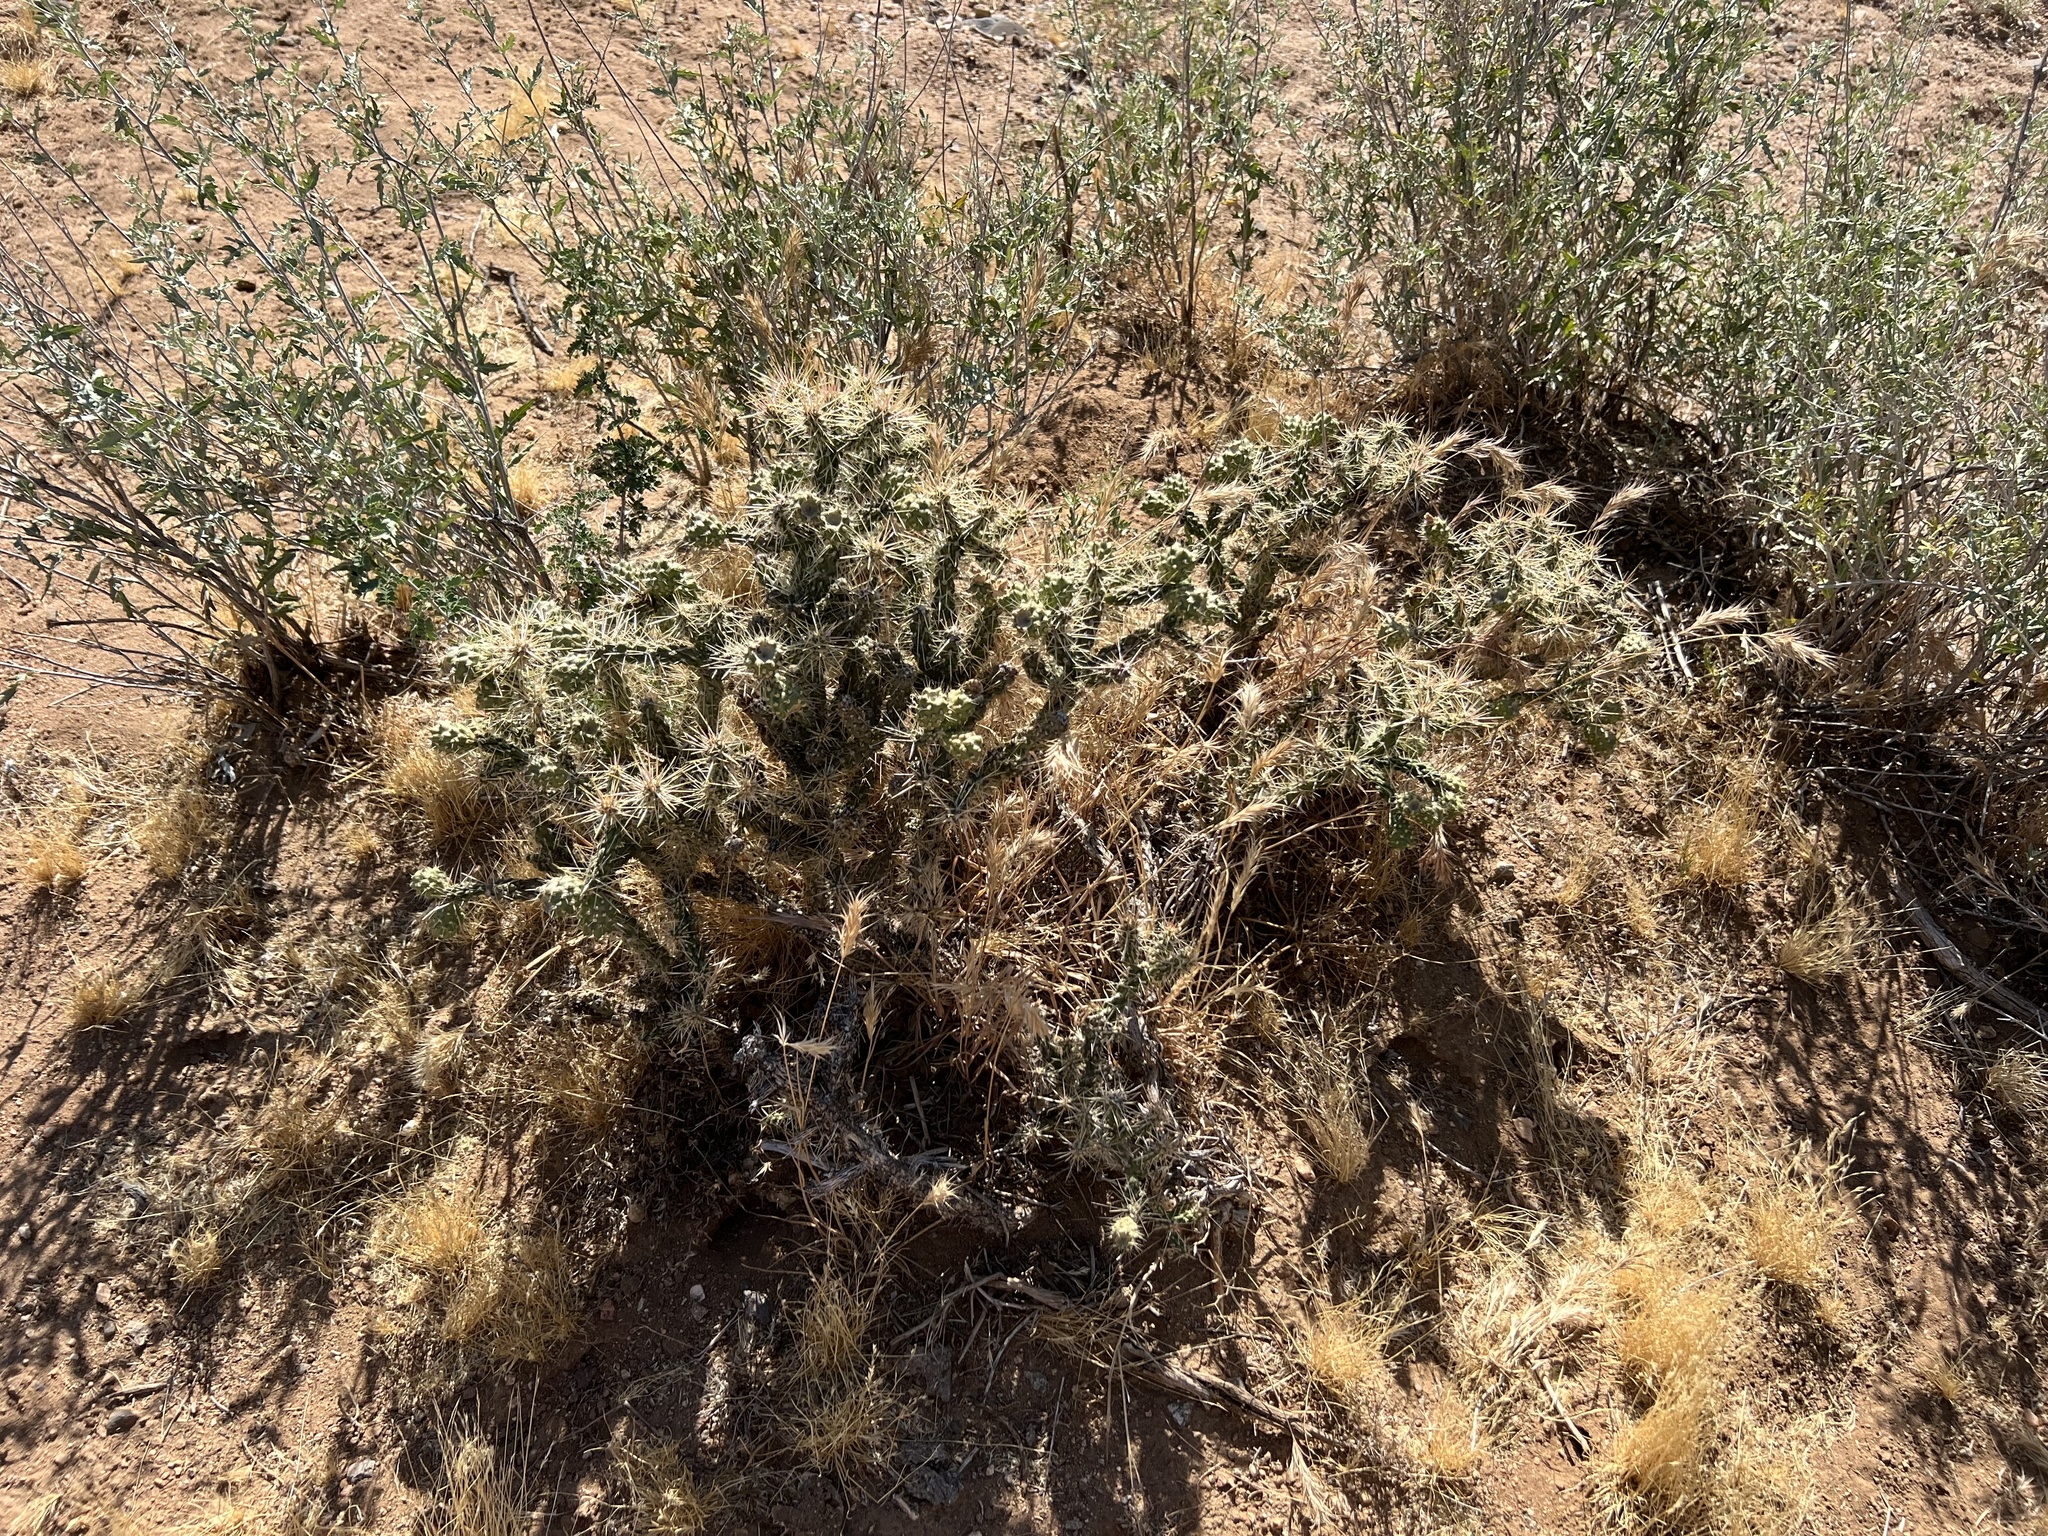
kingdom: Plantae
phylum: Tracheophyta
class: Magnoliopsida
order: Caryophyllales
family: Cactaceae
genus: Cylindropuntia
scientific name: Cylindropuntia whipplei
